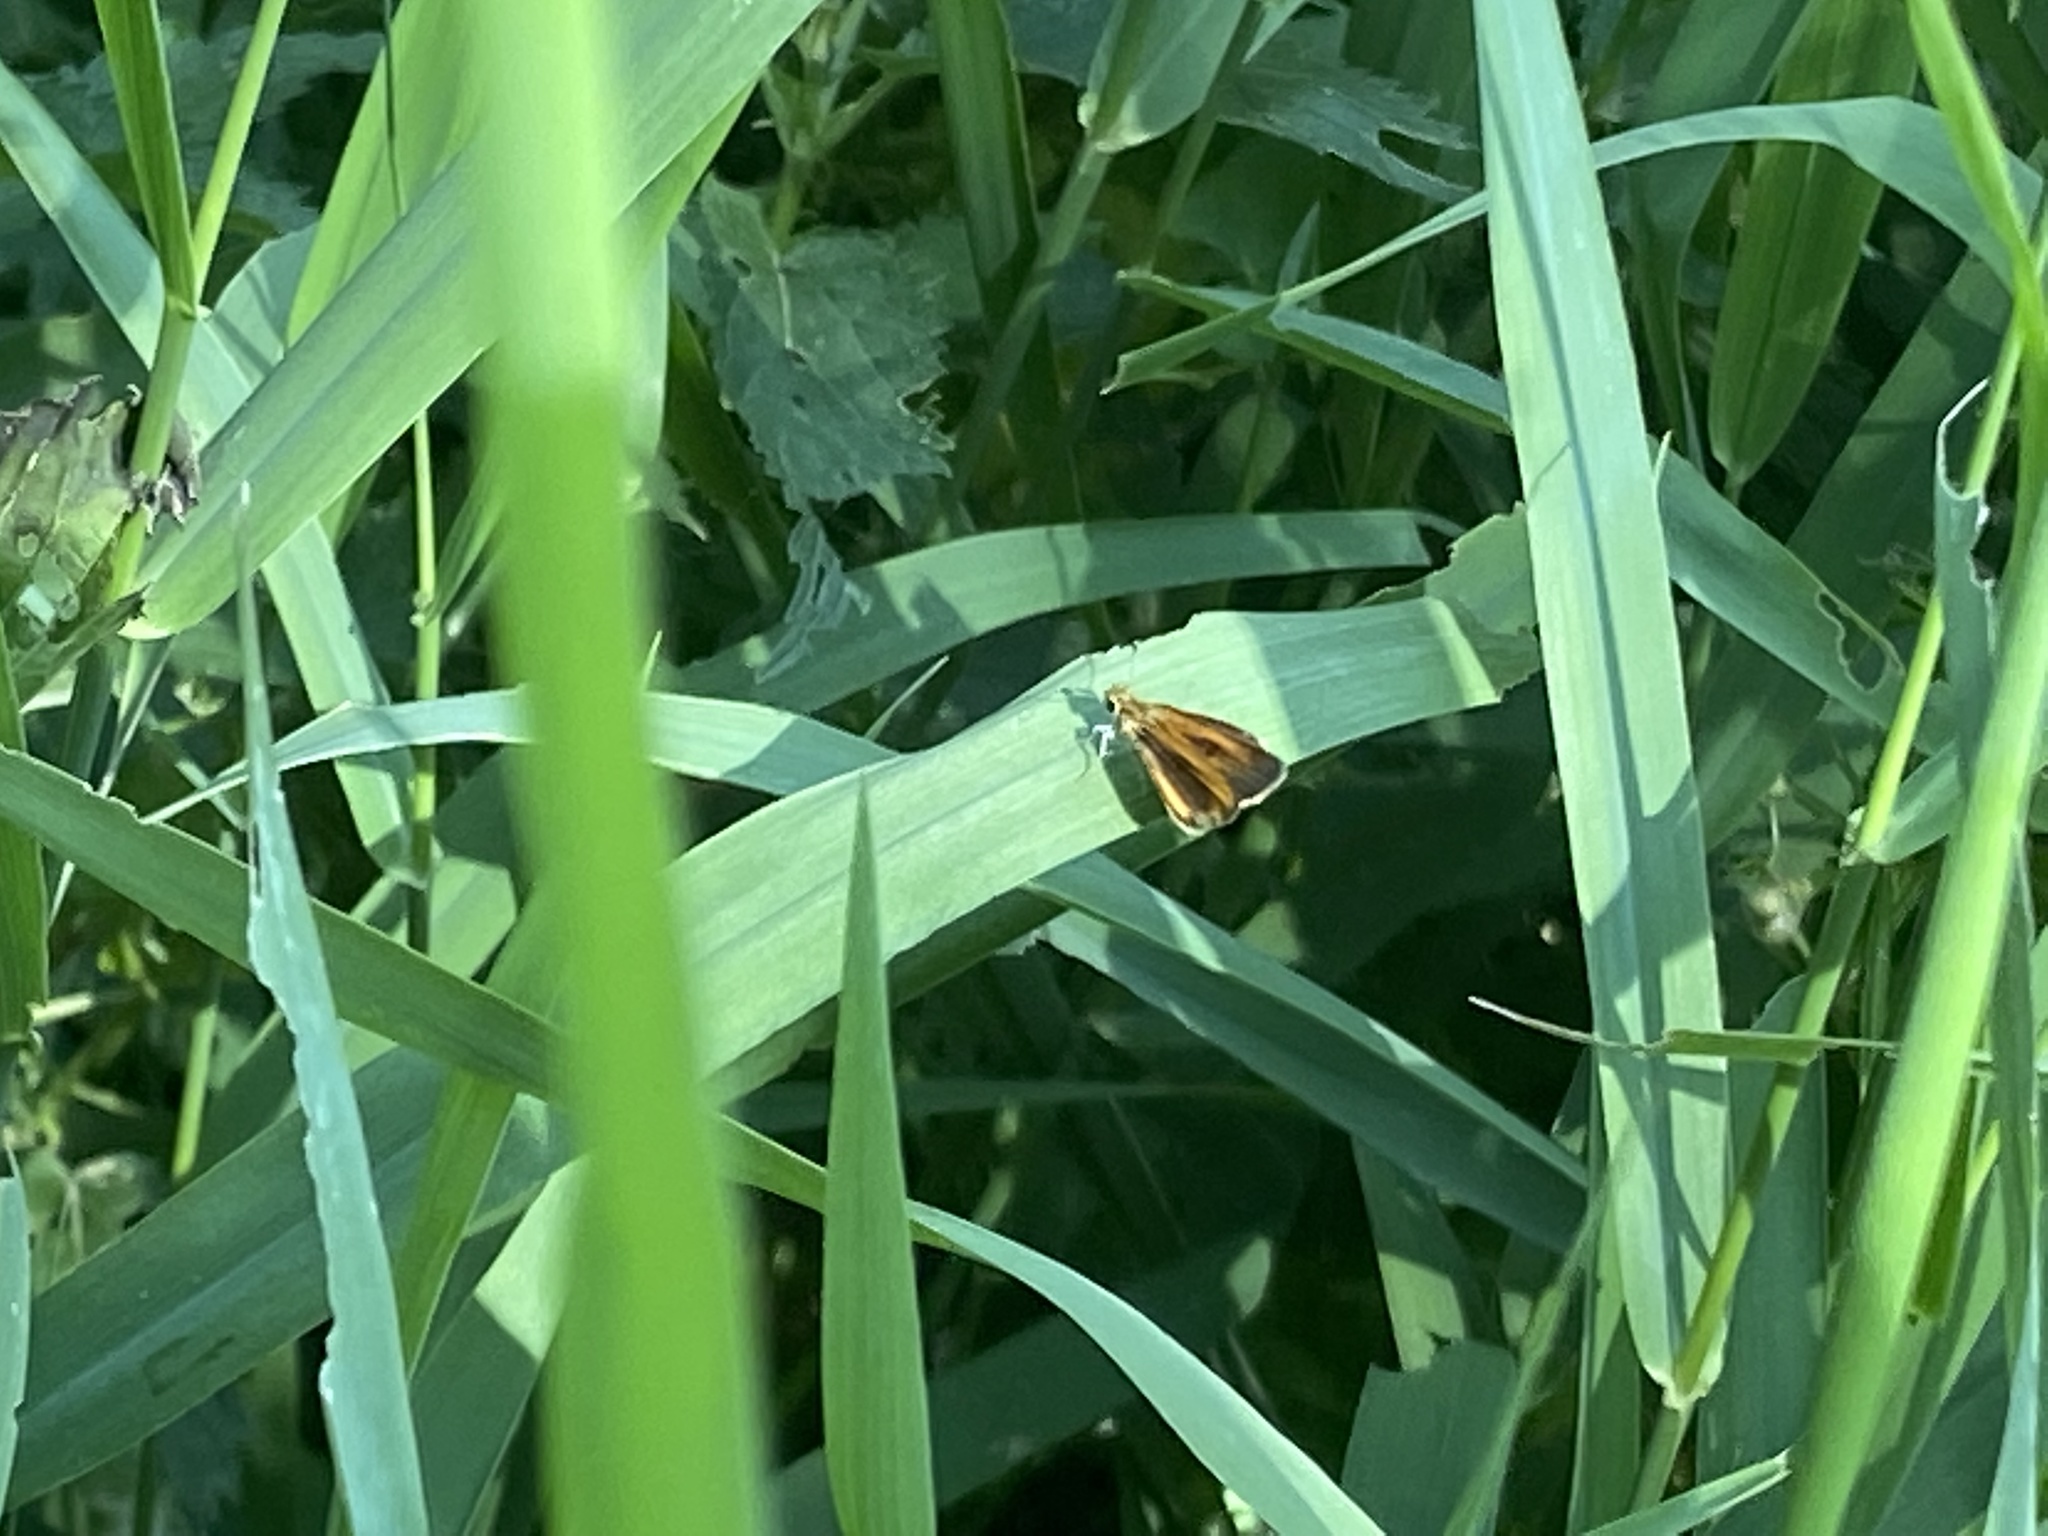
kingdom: Animalia
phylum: Arthropoda
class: Insecta
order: Lepidoptera
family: Hesperiidae
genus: Ancyloxypha
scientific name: Ancyloxypha numitor
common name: Least skipper
